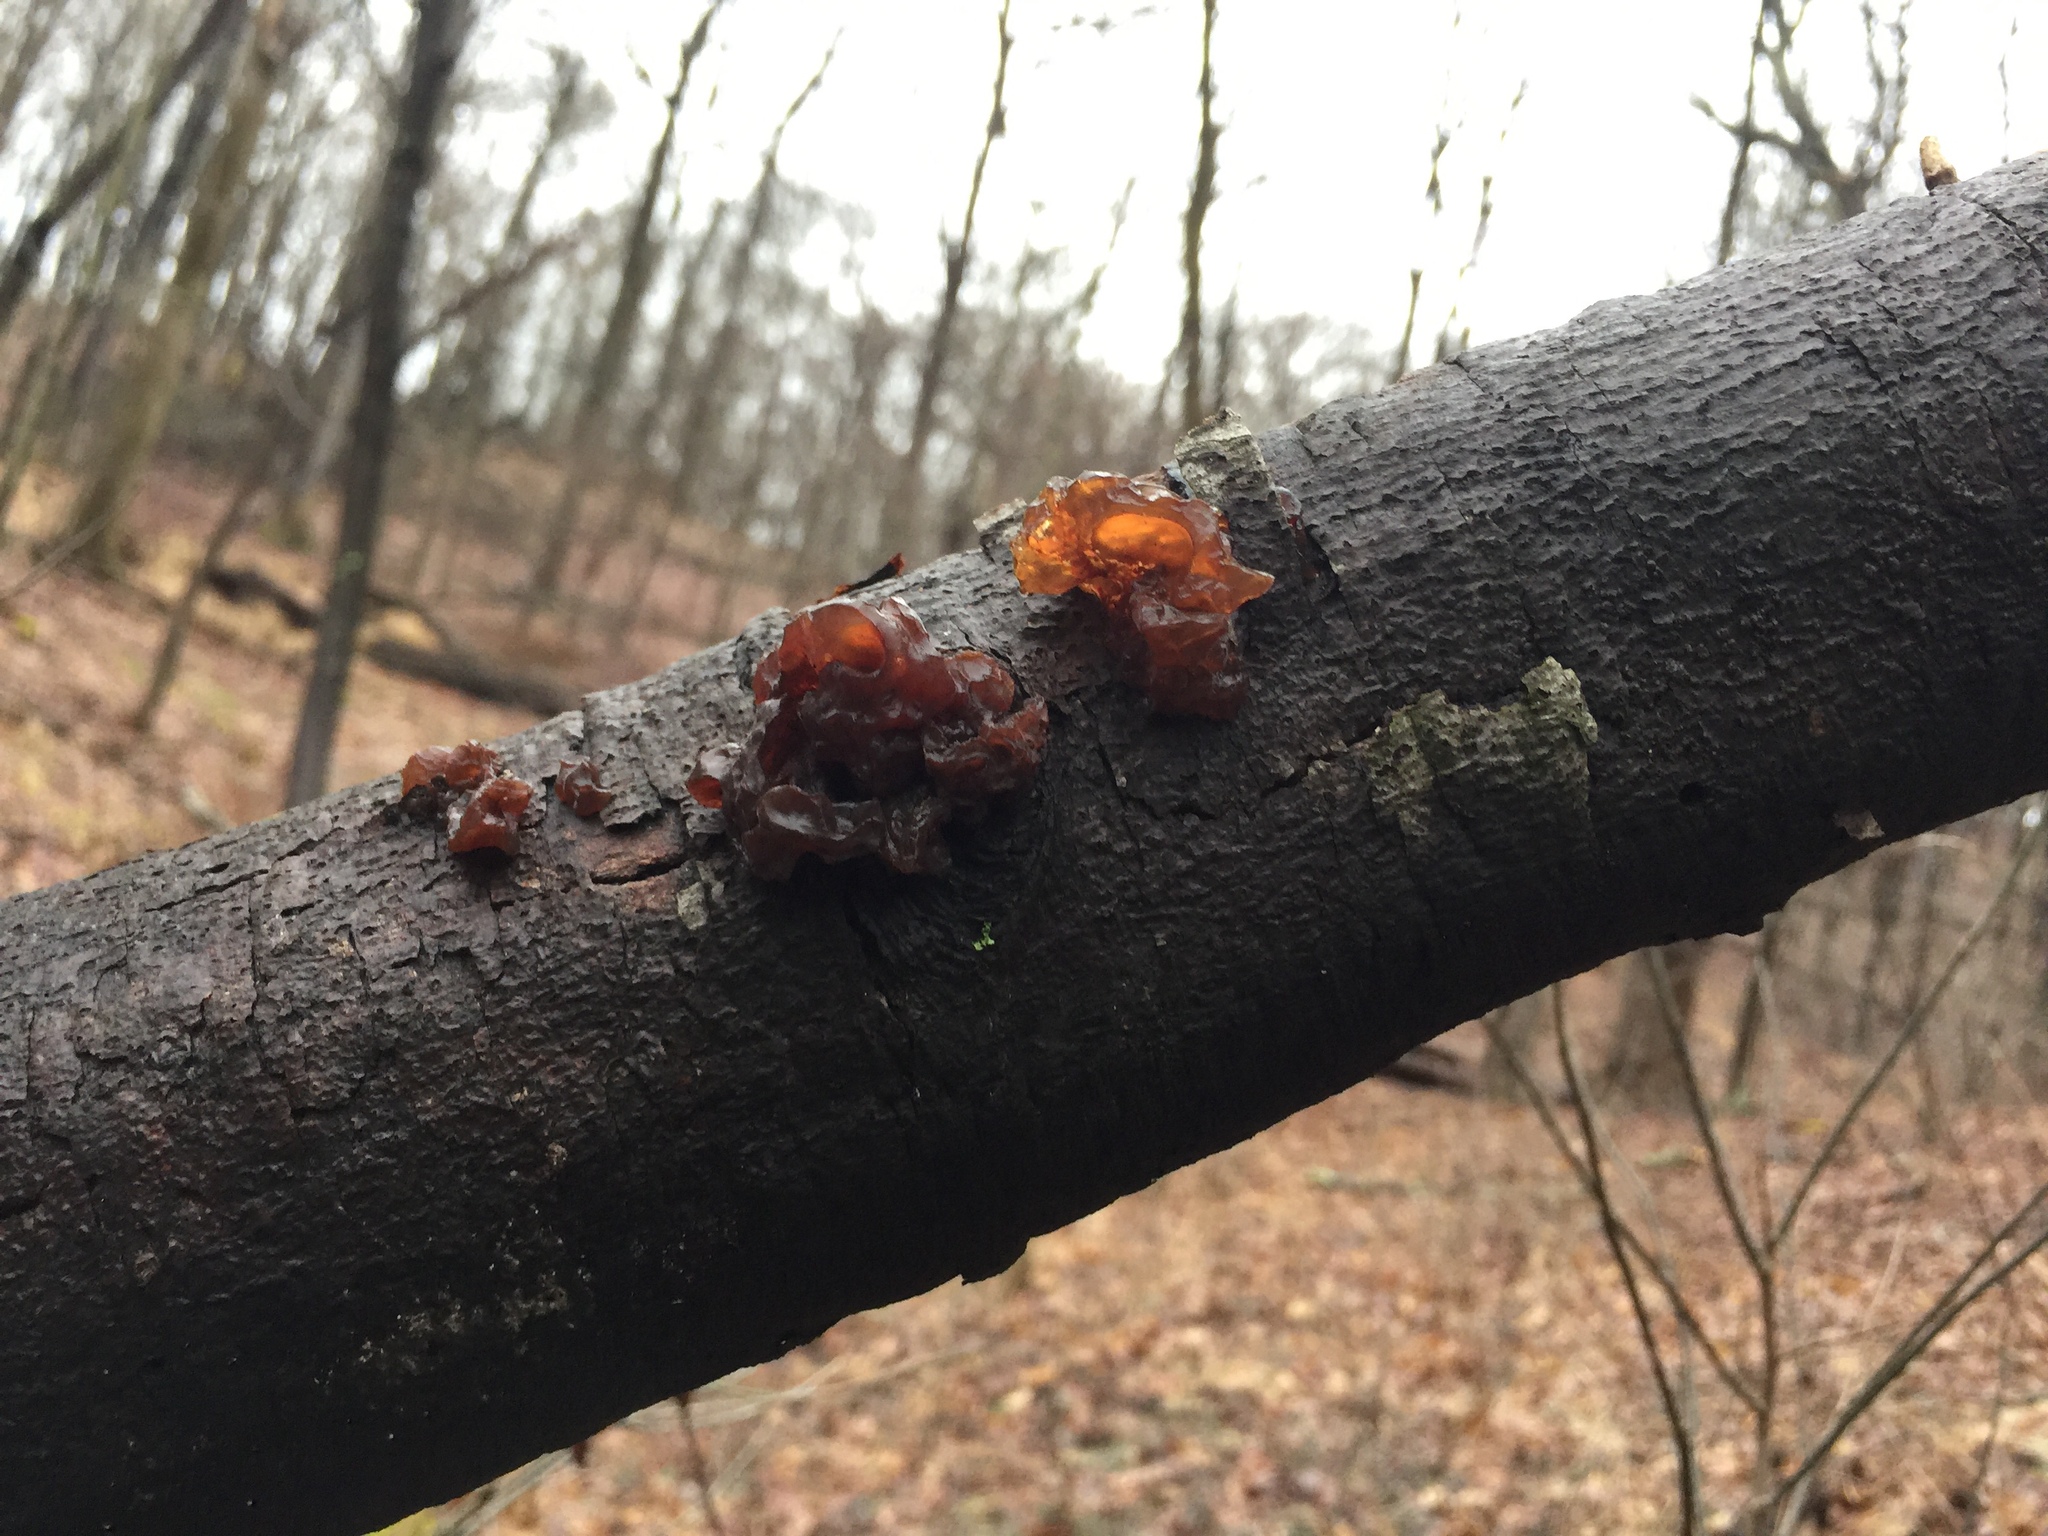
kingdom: Fungi
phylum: Basidiomycota
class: Agaricomycetes
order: Auriculariales
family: Auriculariaceae
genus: Exidia
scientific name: Exidia
